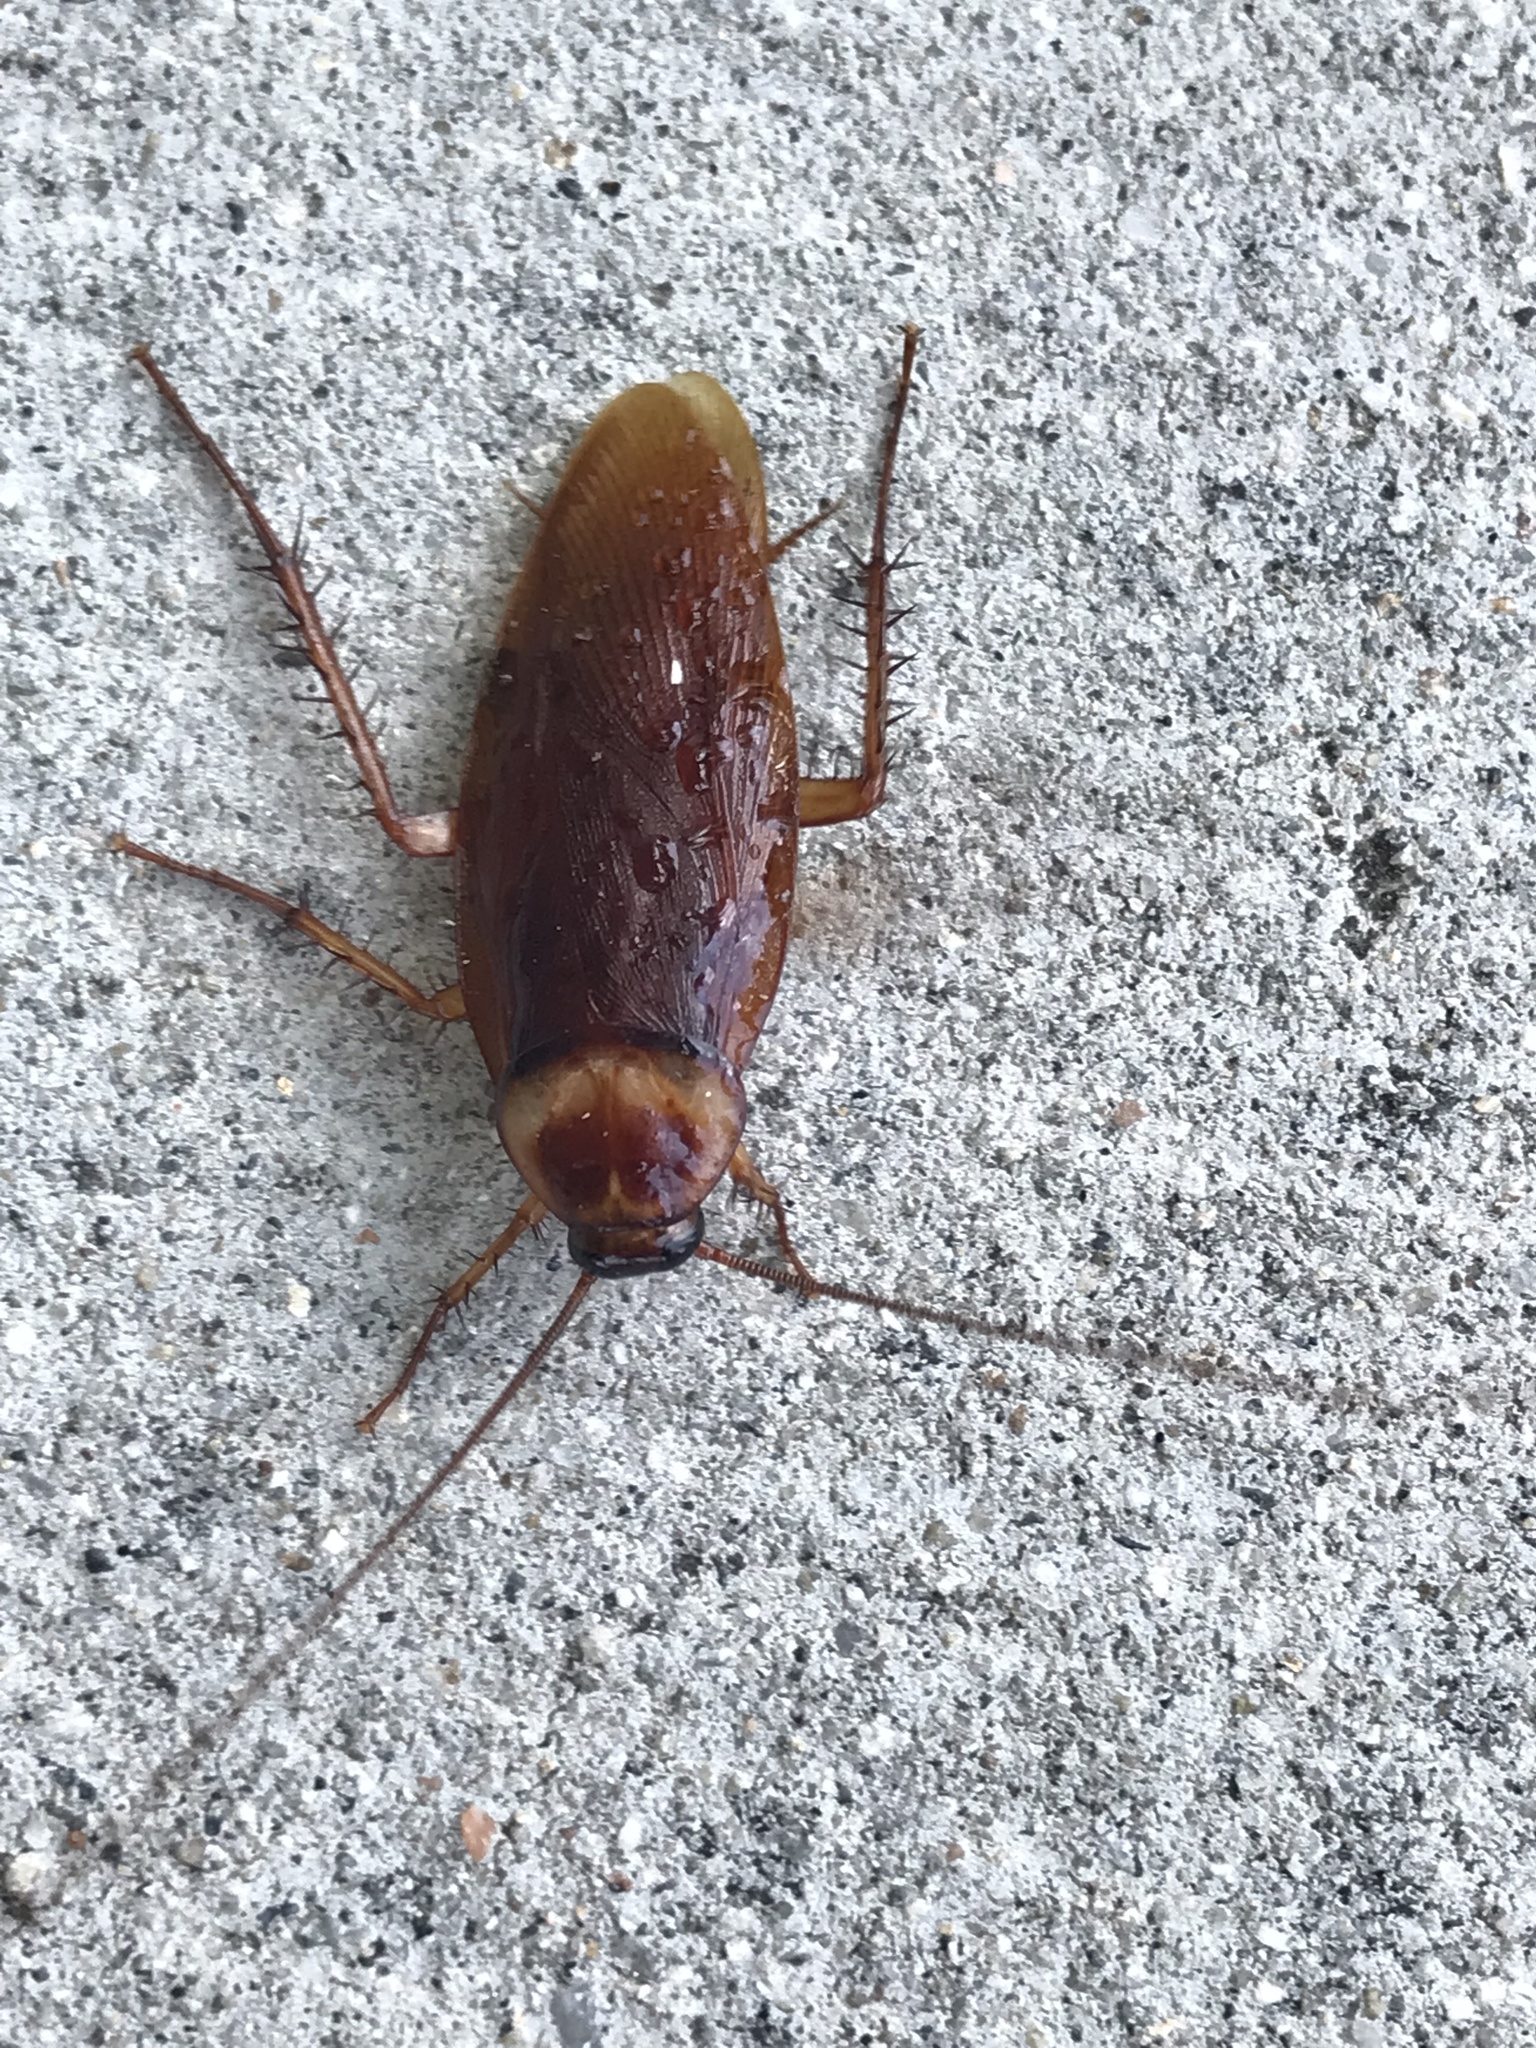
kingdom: Animalia
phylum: Arthropoda
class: Insecta
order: Blattodea
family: Blattidae
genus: Periplaneta
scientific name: Periplaneta americana
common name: American cockroach
